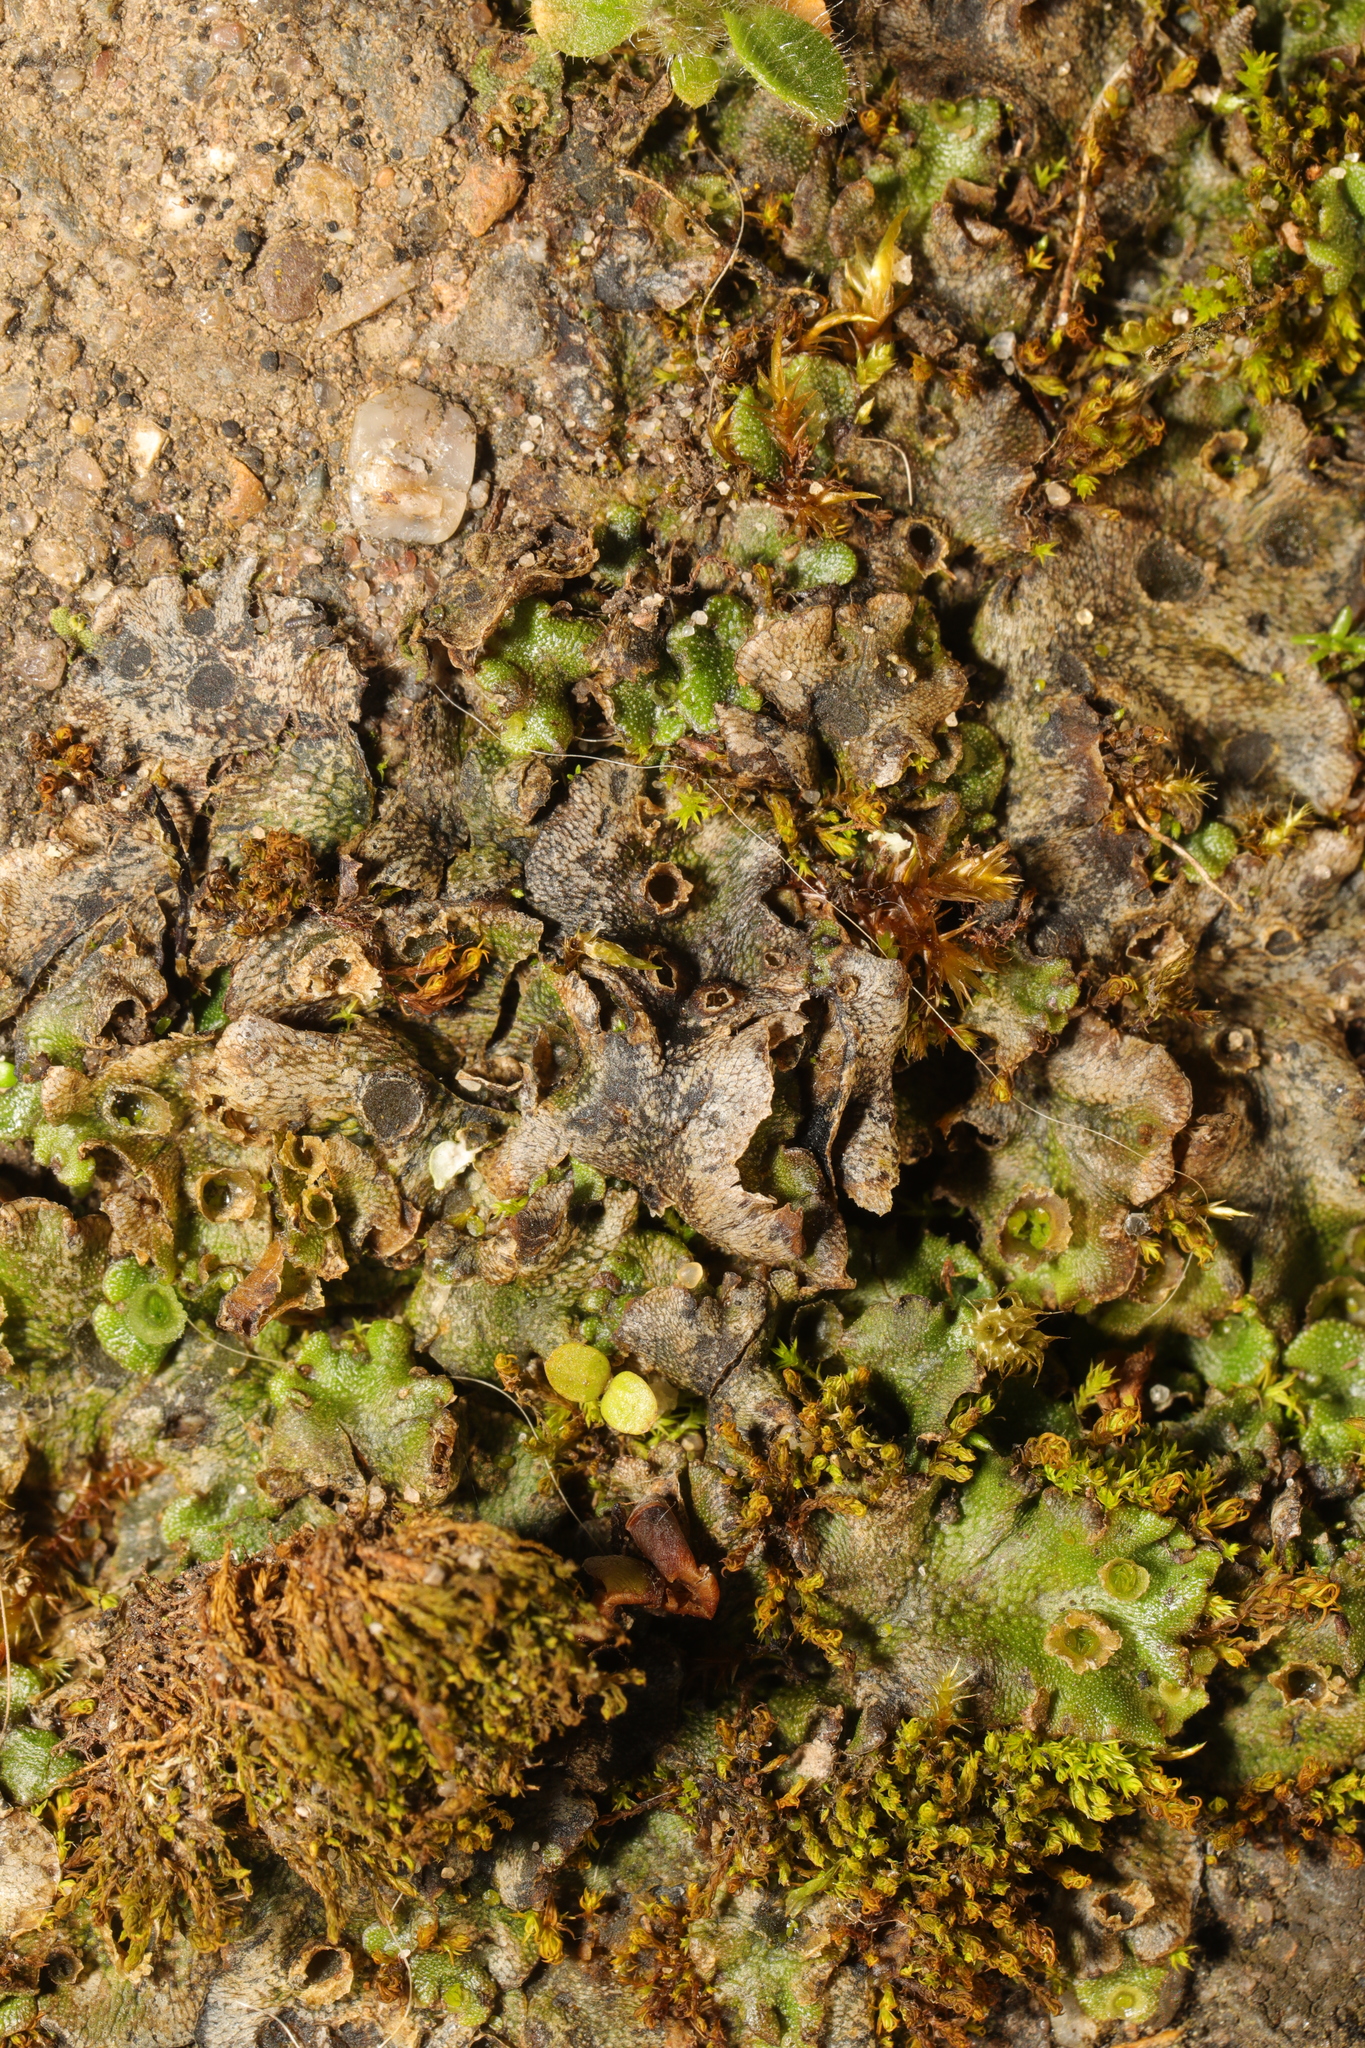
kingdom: Plantae
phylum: Marchantiophyta
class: Marchantiopsida
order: Marchantiales
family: Marchantiaceae
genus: Marchantia
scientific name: Marchantia polymorpha
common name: Common liverwort
